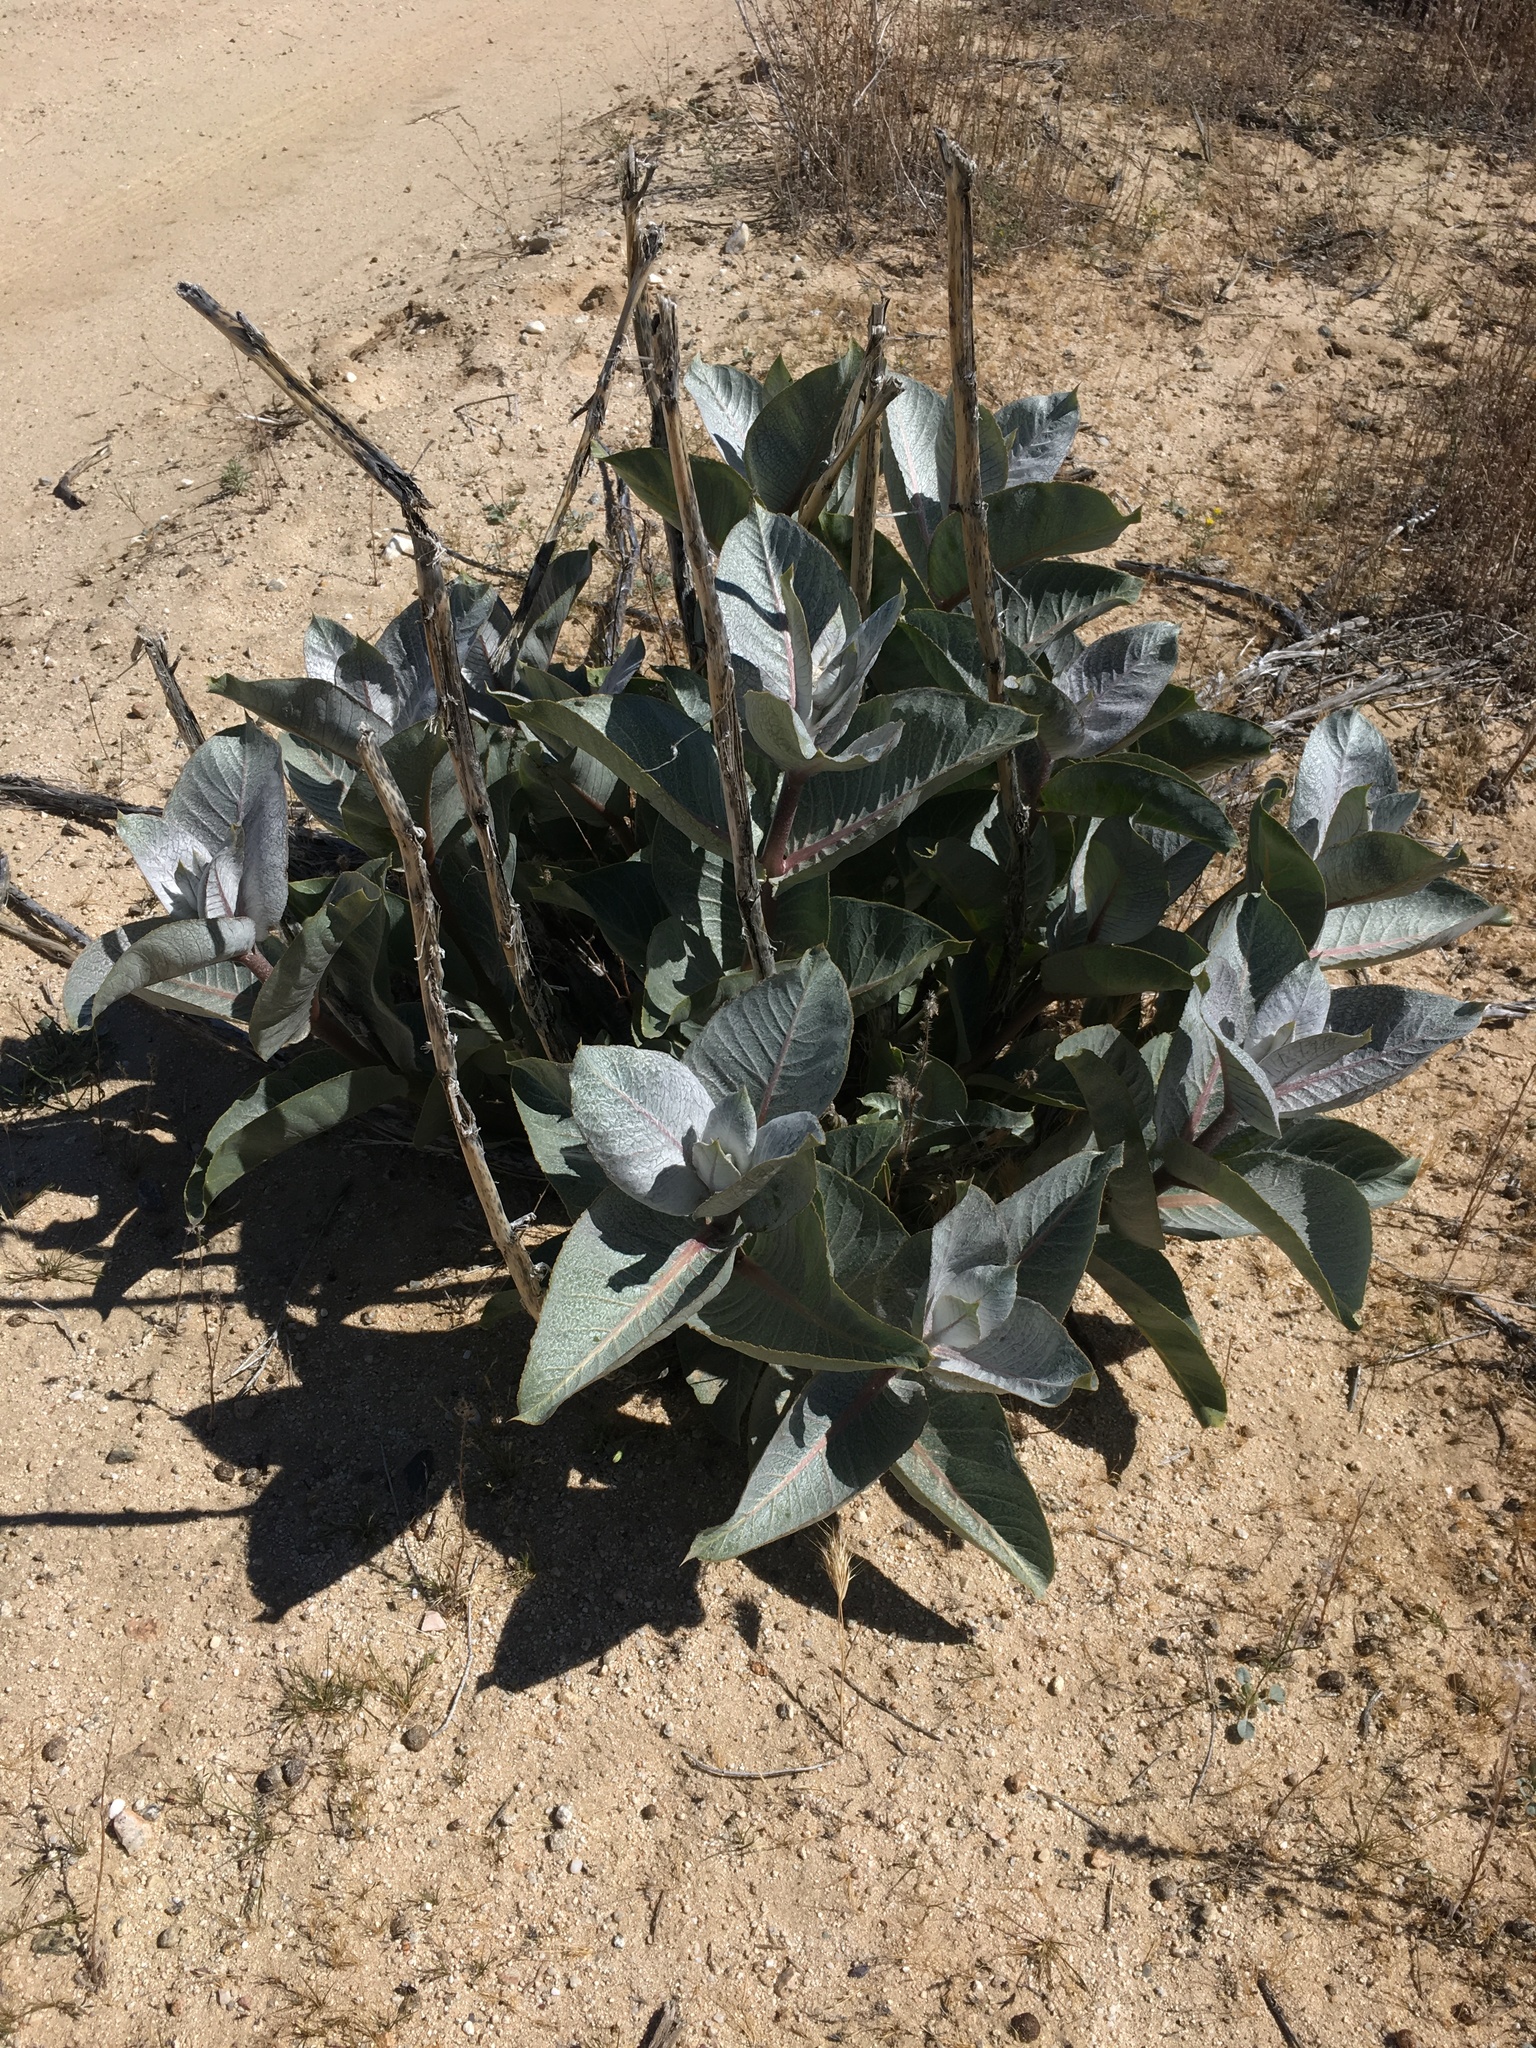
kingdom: Plantae
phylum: Tracheophyta
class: Magnoliopsida
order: Gentianales
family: Apocynaceae
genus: Asclepias
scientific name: Asclepias erosa
